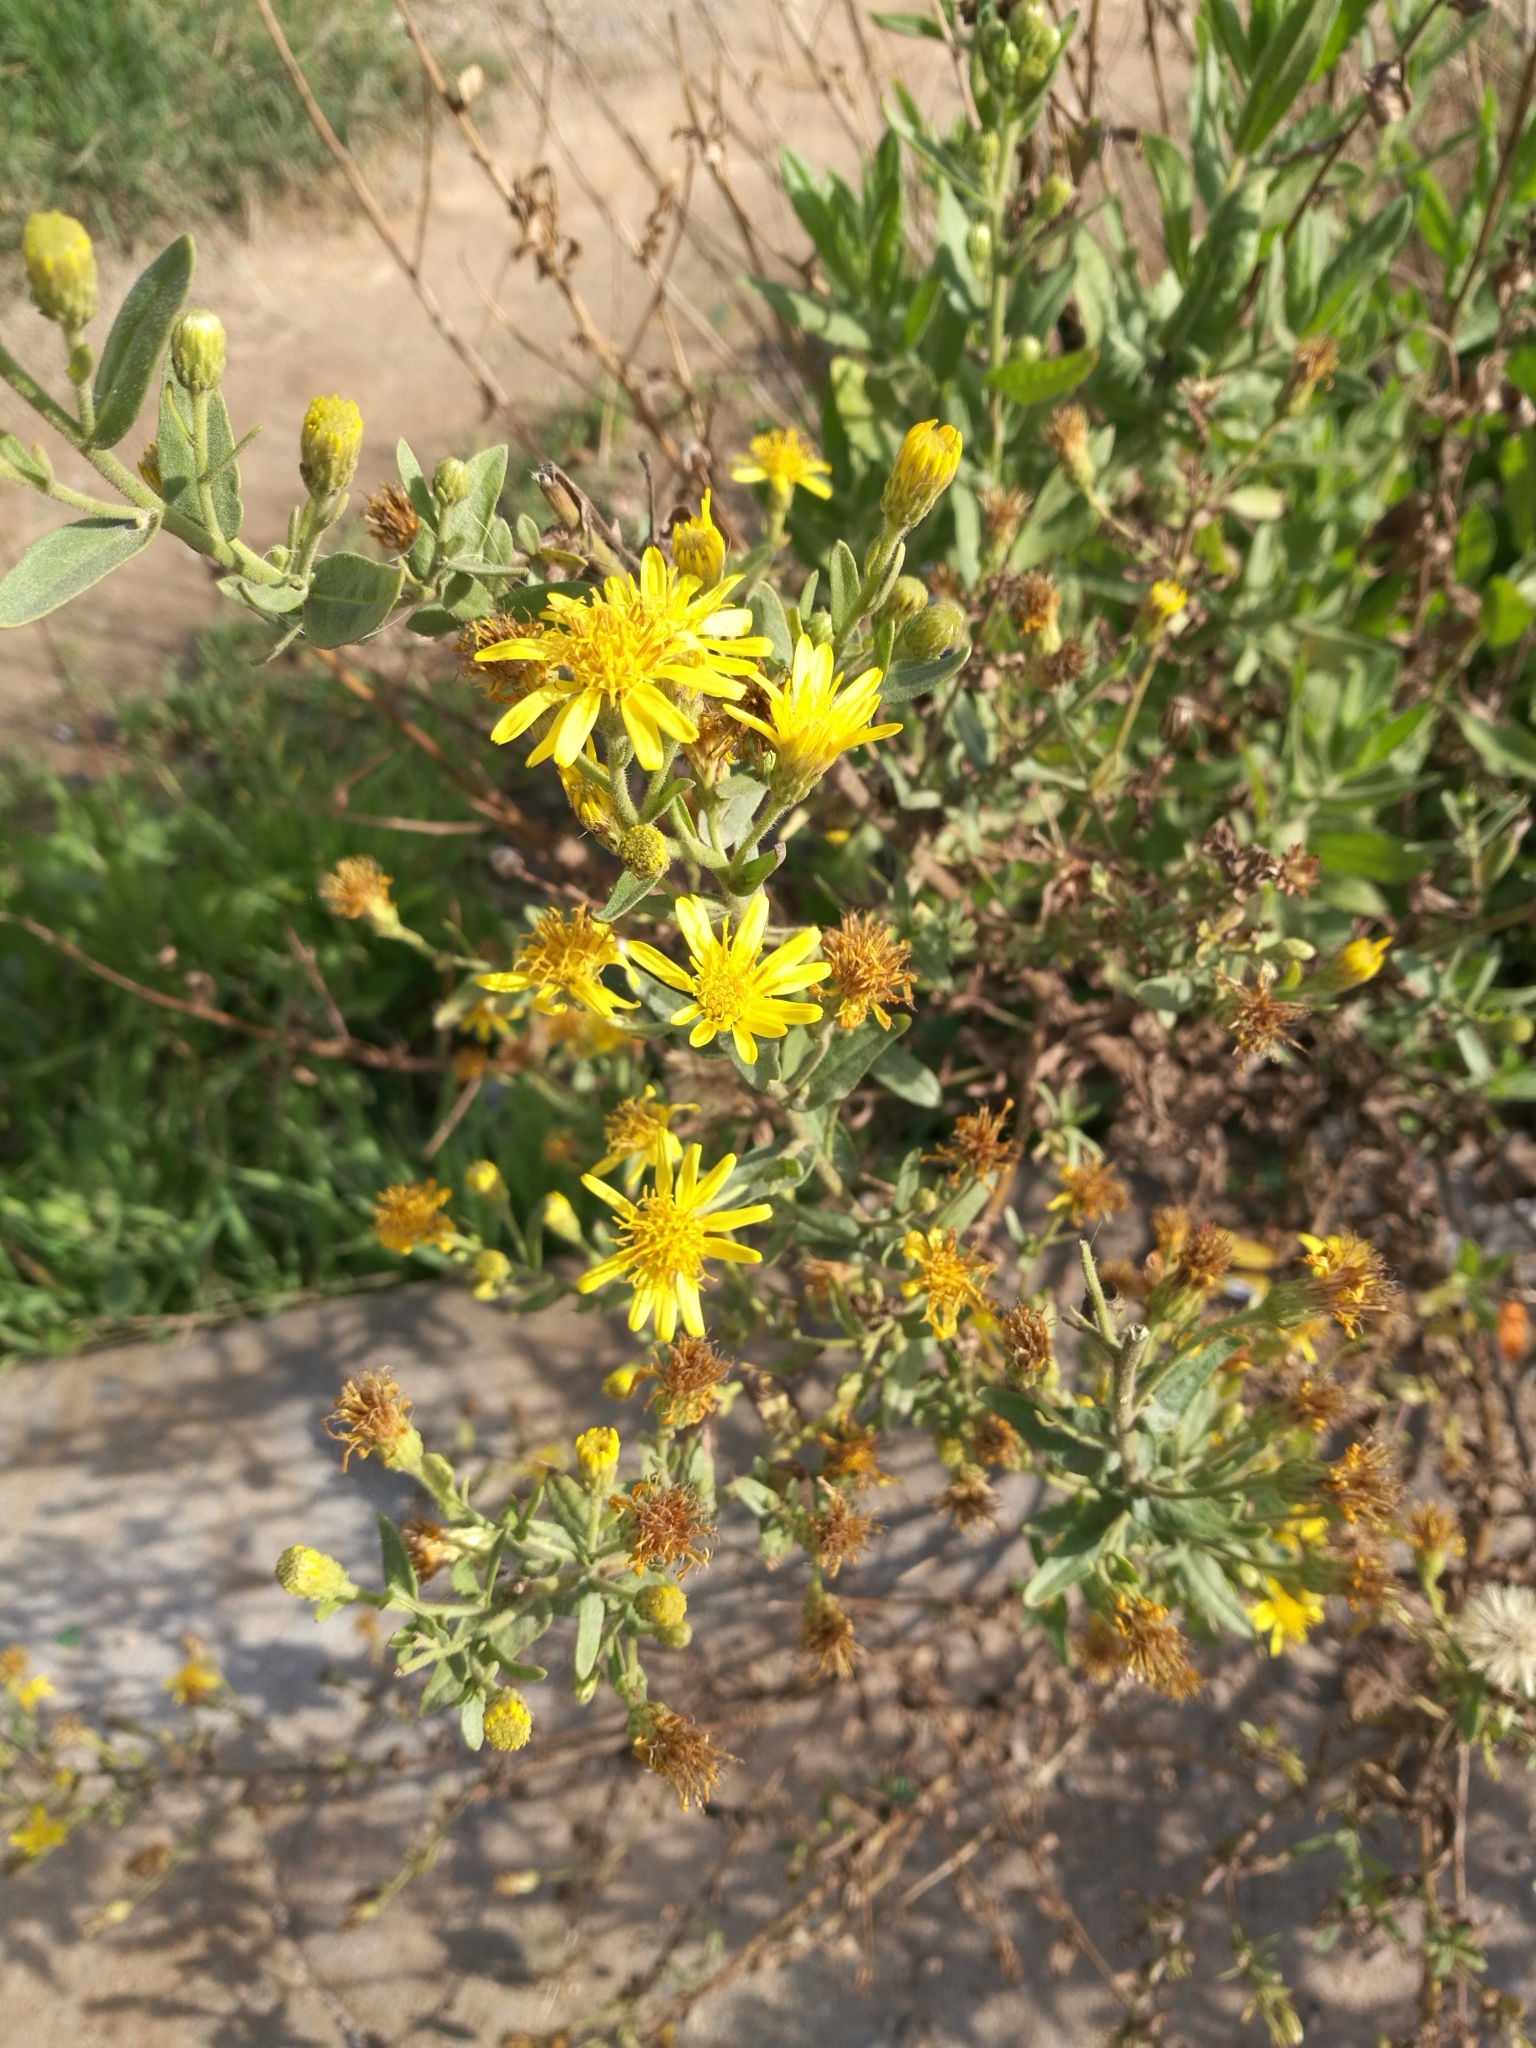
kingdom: Plantae
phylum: Tracheophyta
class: Magnoliopsida
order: Asterales
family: Asteraceae
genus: Dittrichia
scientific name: Dittrichia viscosa
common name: Woody fleabane
